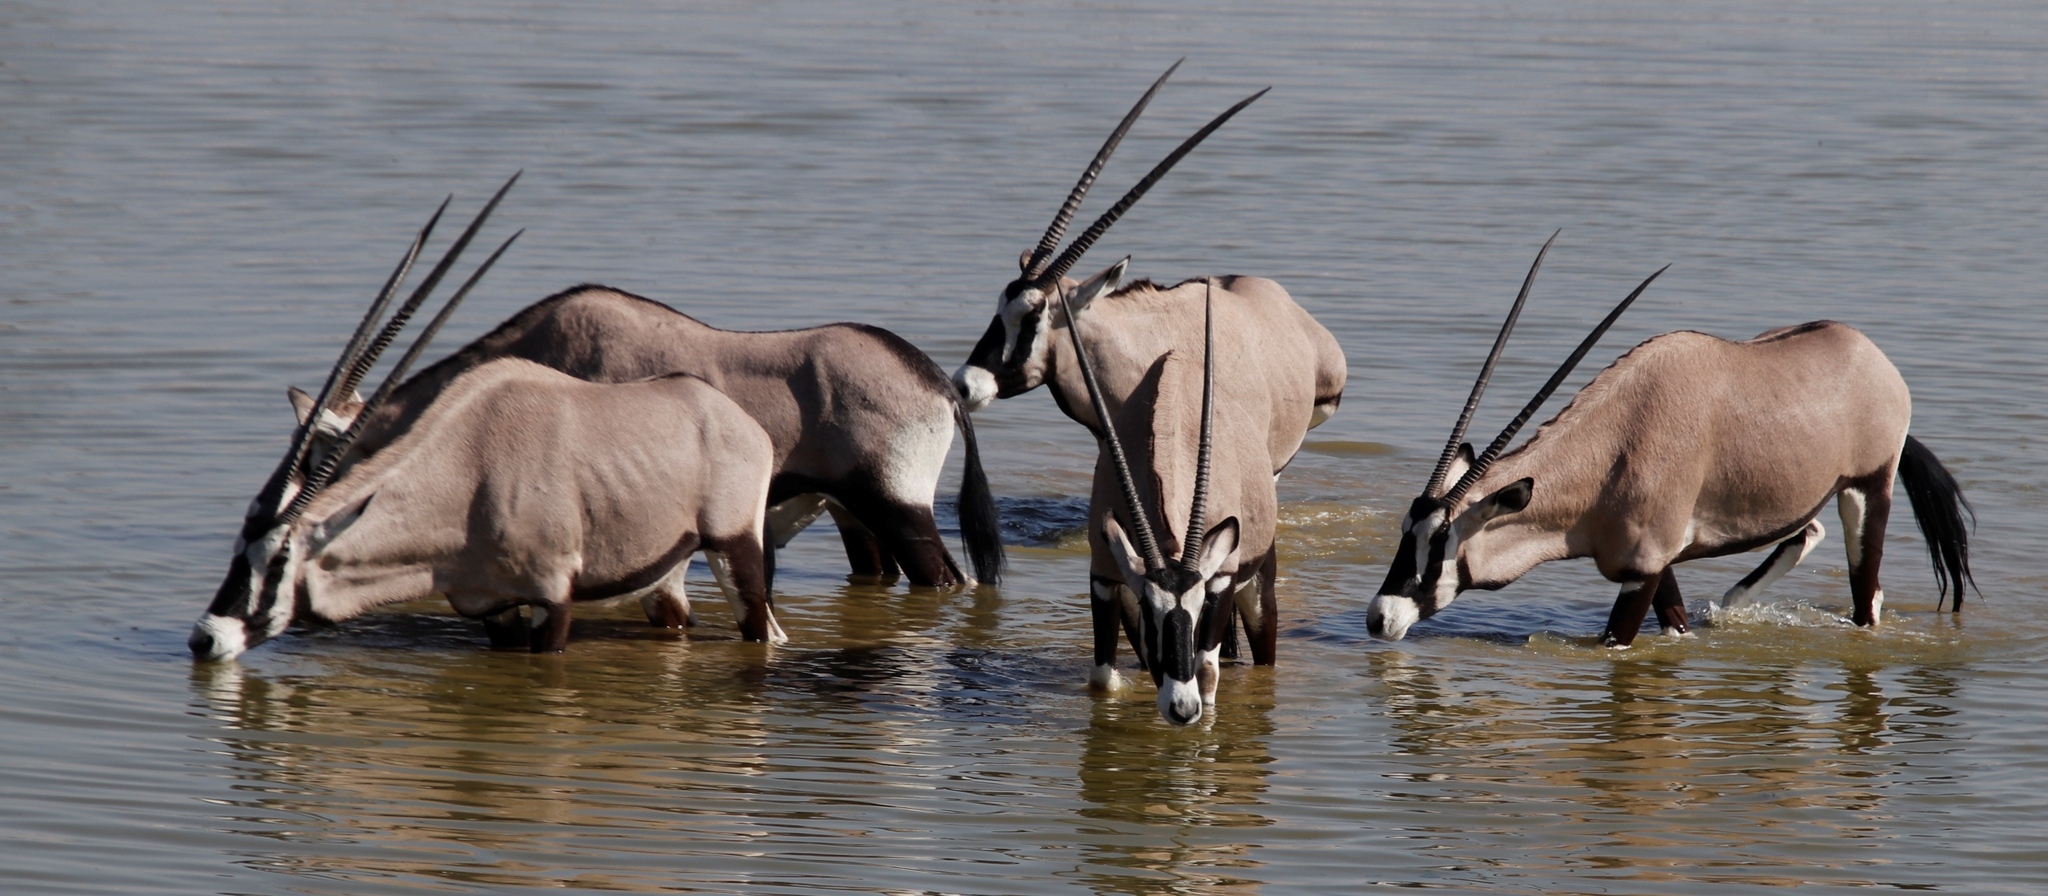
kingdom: Animalia
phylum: Chordata
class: Mammalia
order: Artiodactyla
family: Bovidae
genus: Oryx
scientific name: Oryx gazella
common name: Gemsbok
